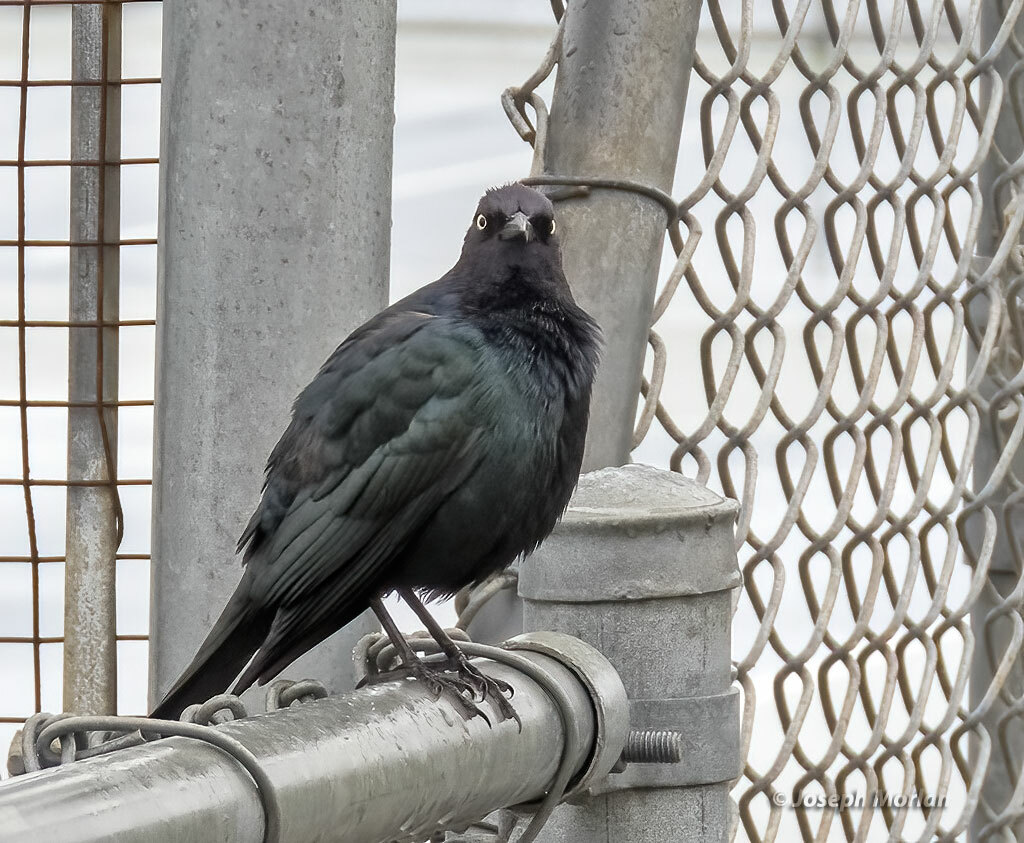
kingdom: Animalia
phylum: Chordata
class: Aves
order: Passeriformes
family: Icteridae
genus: Euphagus
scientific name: Euphagus cyanocephalus
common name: Brewer's blackbird
